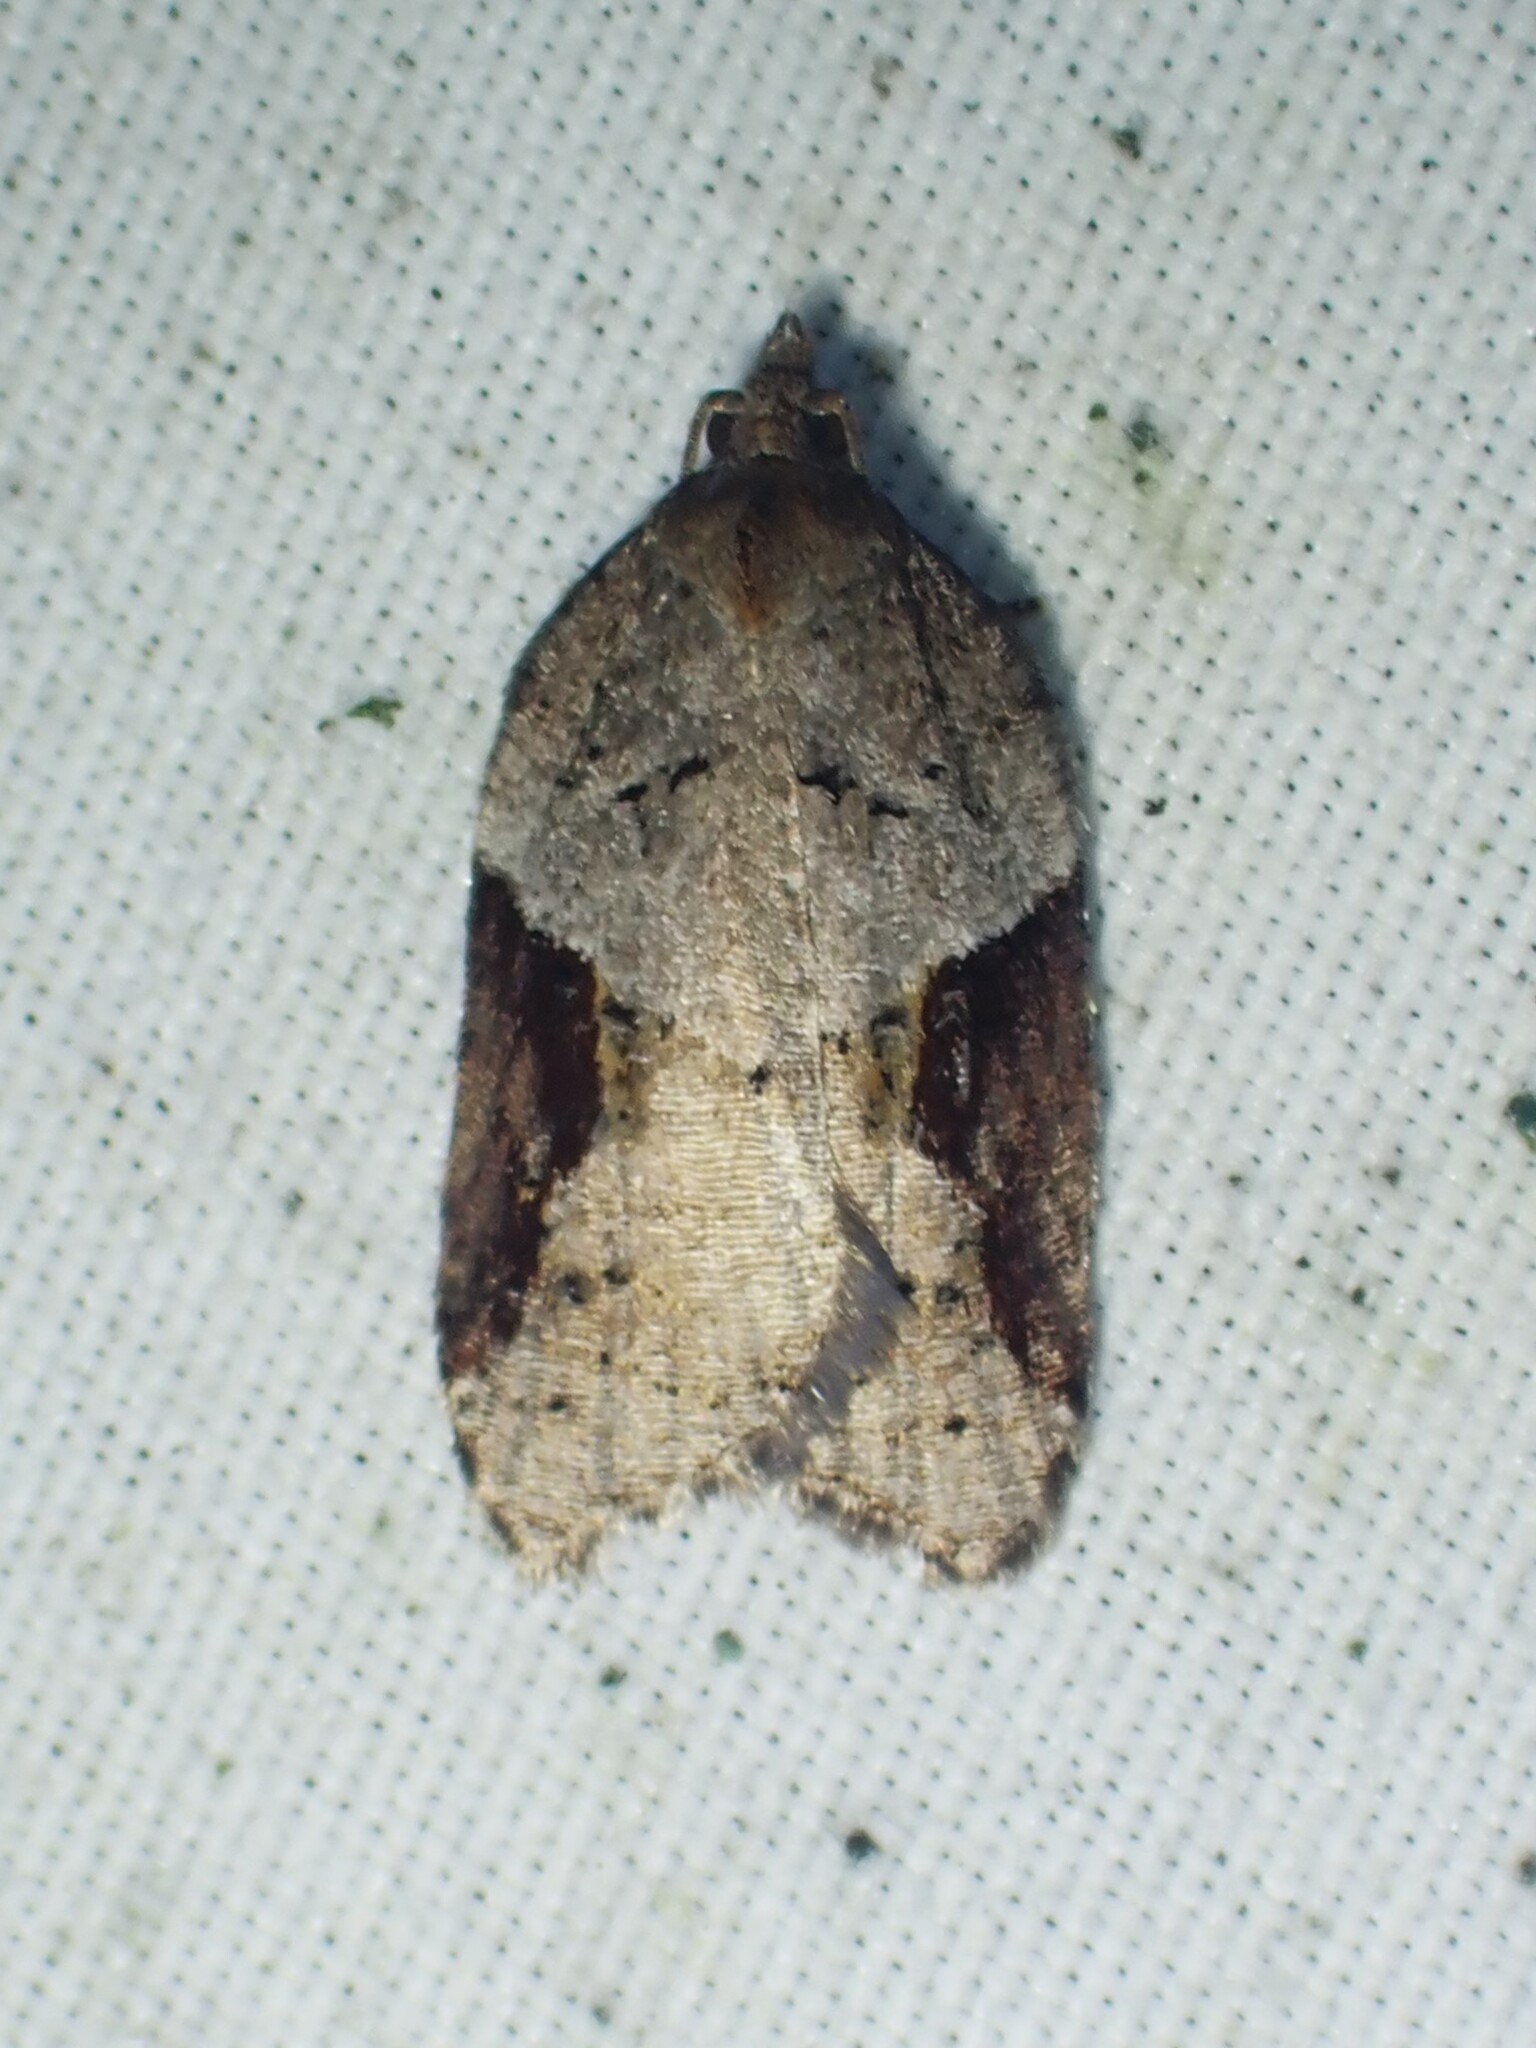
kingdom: Animalia
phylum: Arthropoda
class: Insecta
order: Lepidoptera
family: Tortricidae
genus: Acleris
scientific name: Acleris macdunnoughi
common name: Macdunnough's acleris
